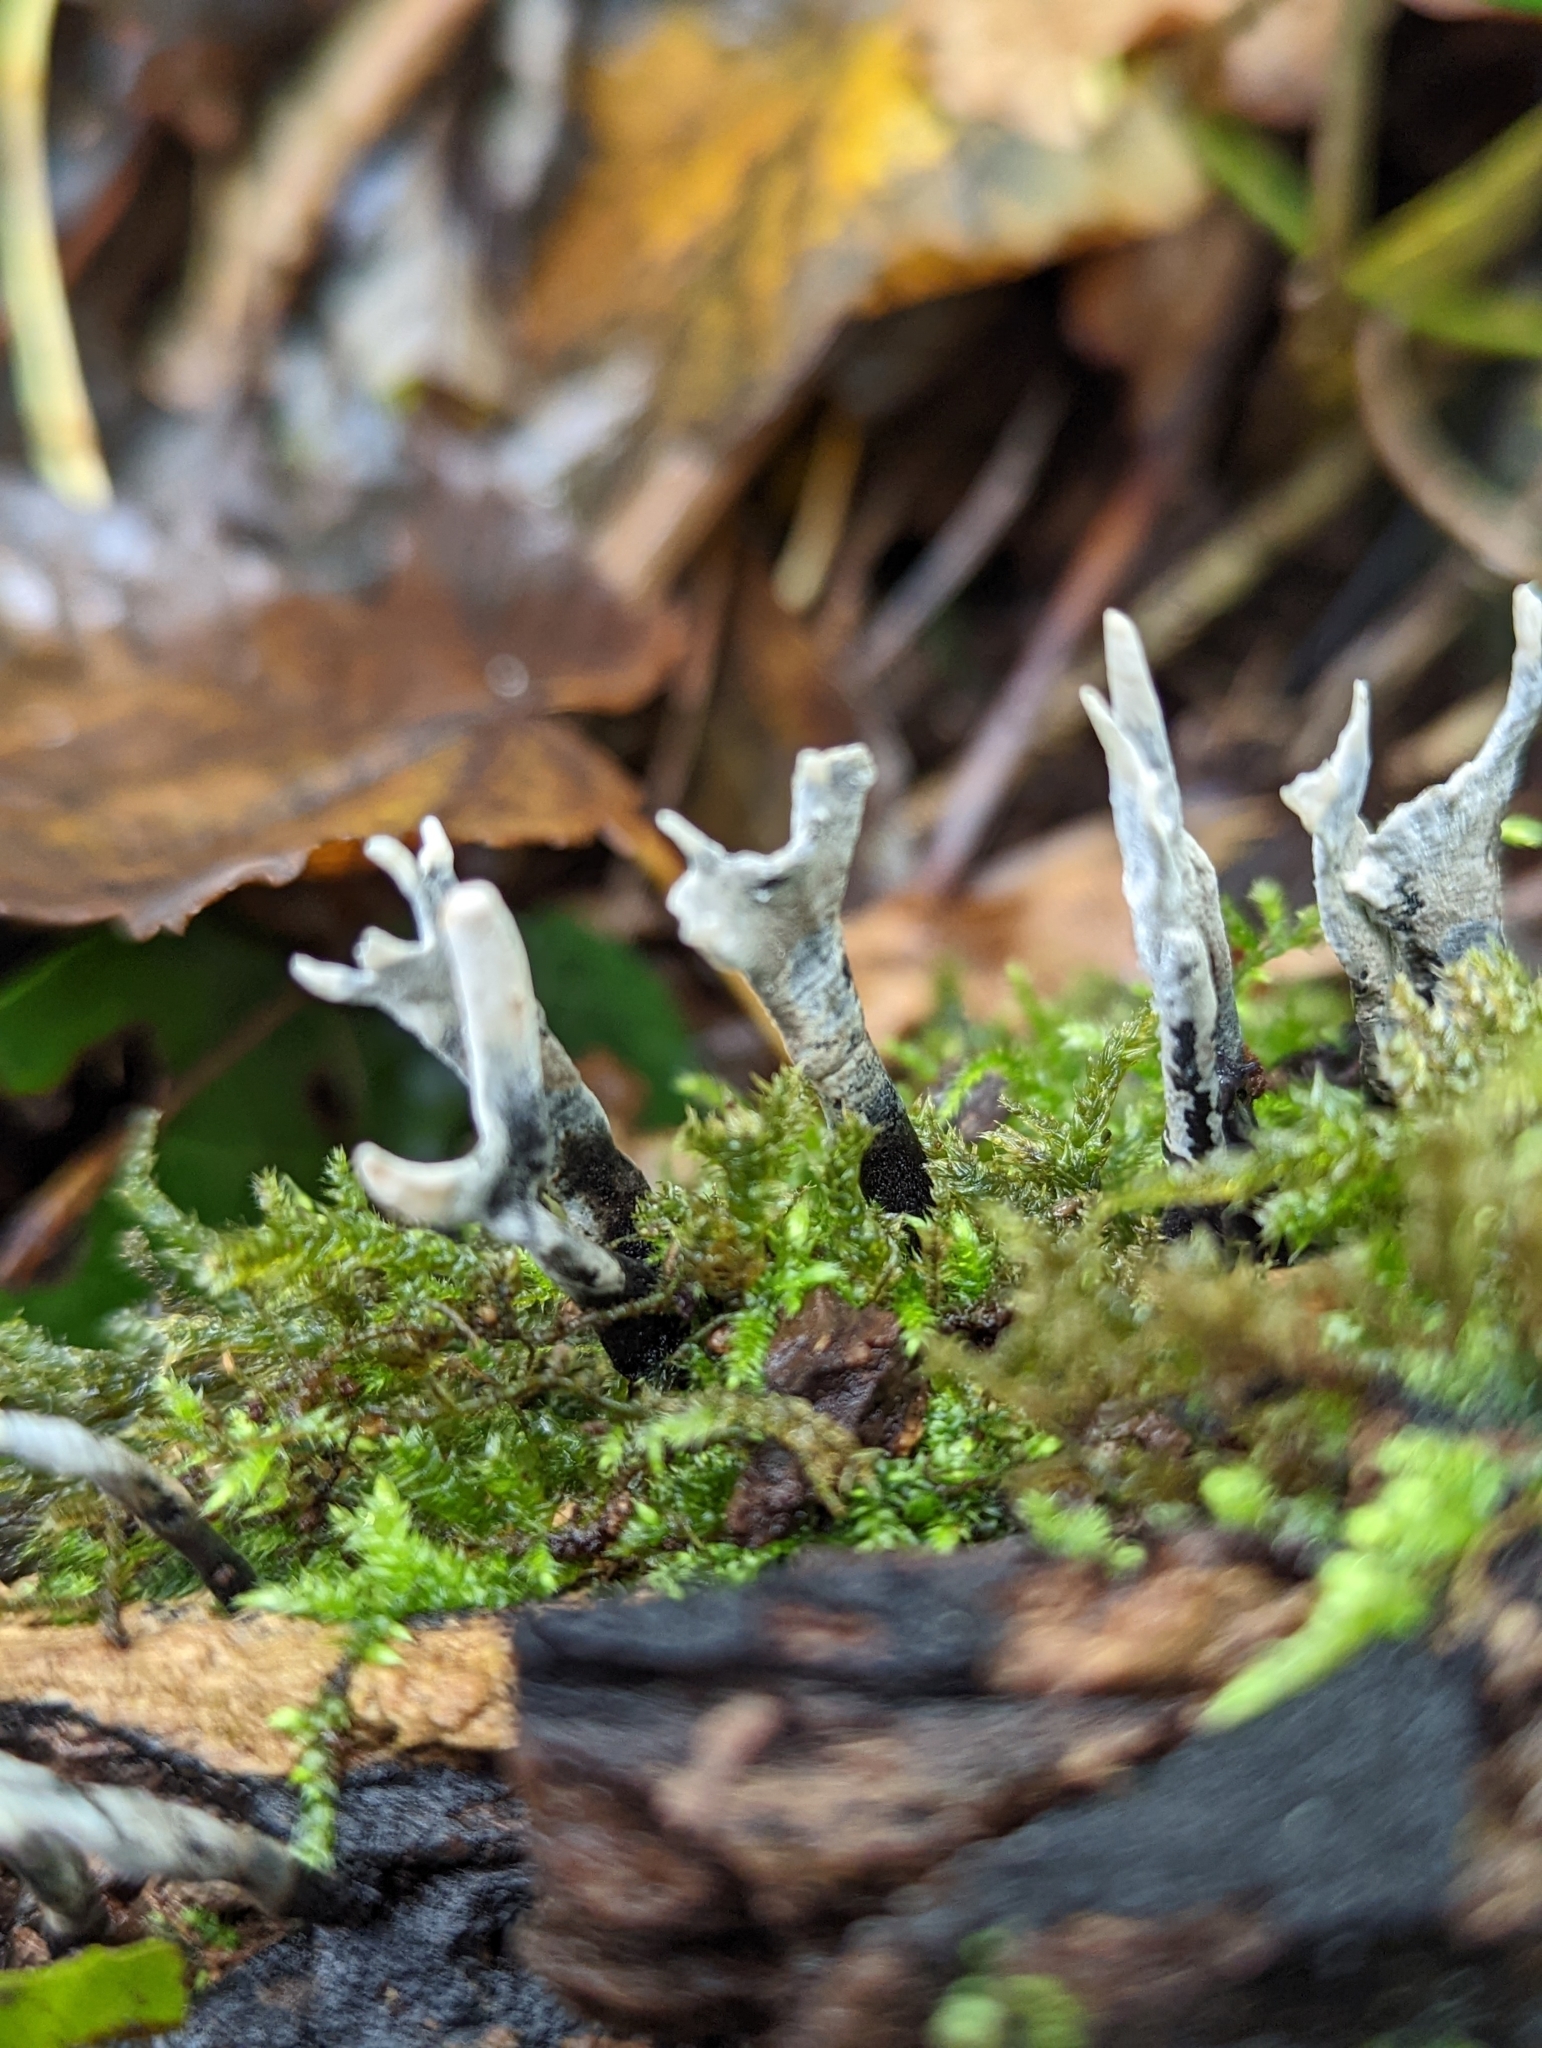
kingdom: Fungi
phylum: Ascomycota
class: Sordariomycetes
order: Xylariales
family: Xylariaceae
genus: Xylaria
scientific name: Xylaria hypoxylon
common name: Candle-snuff fungus
